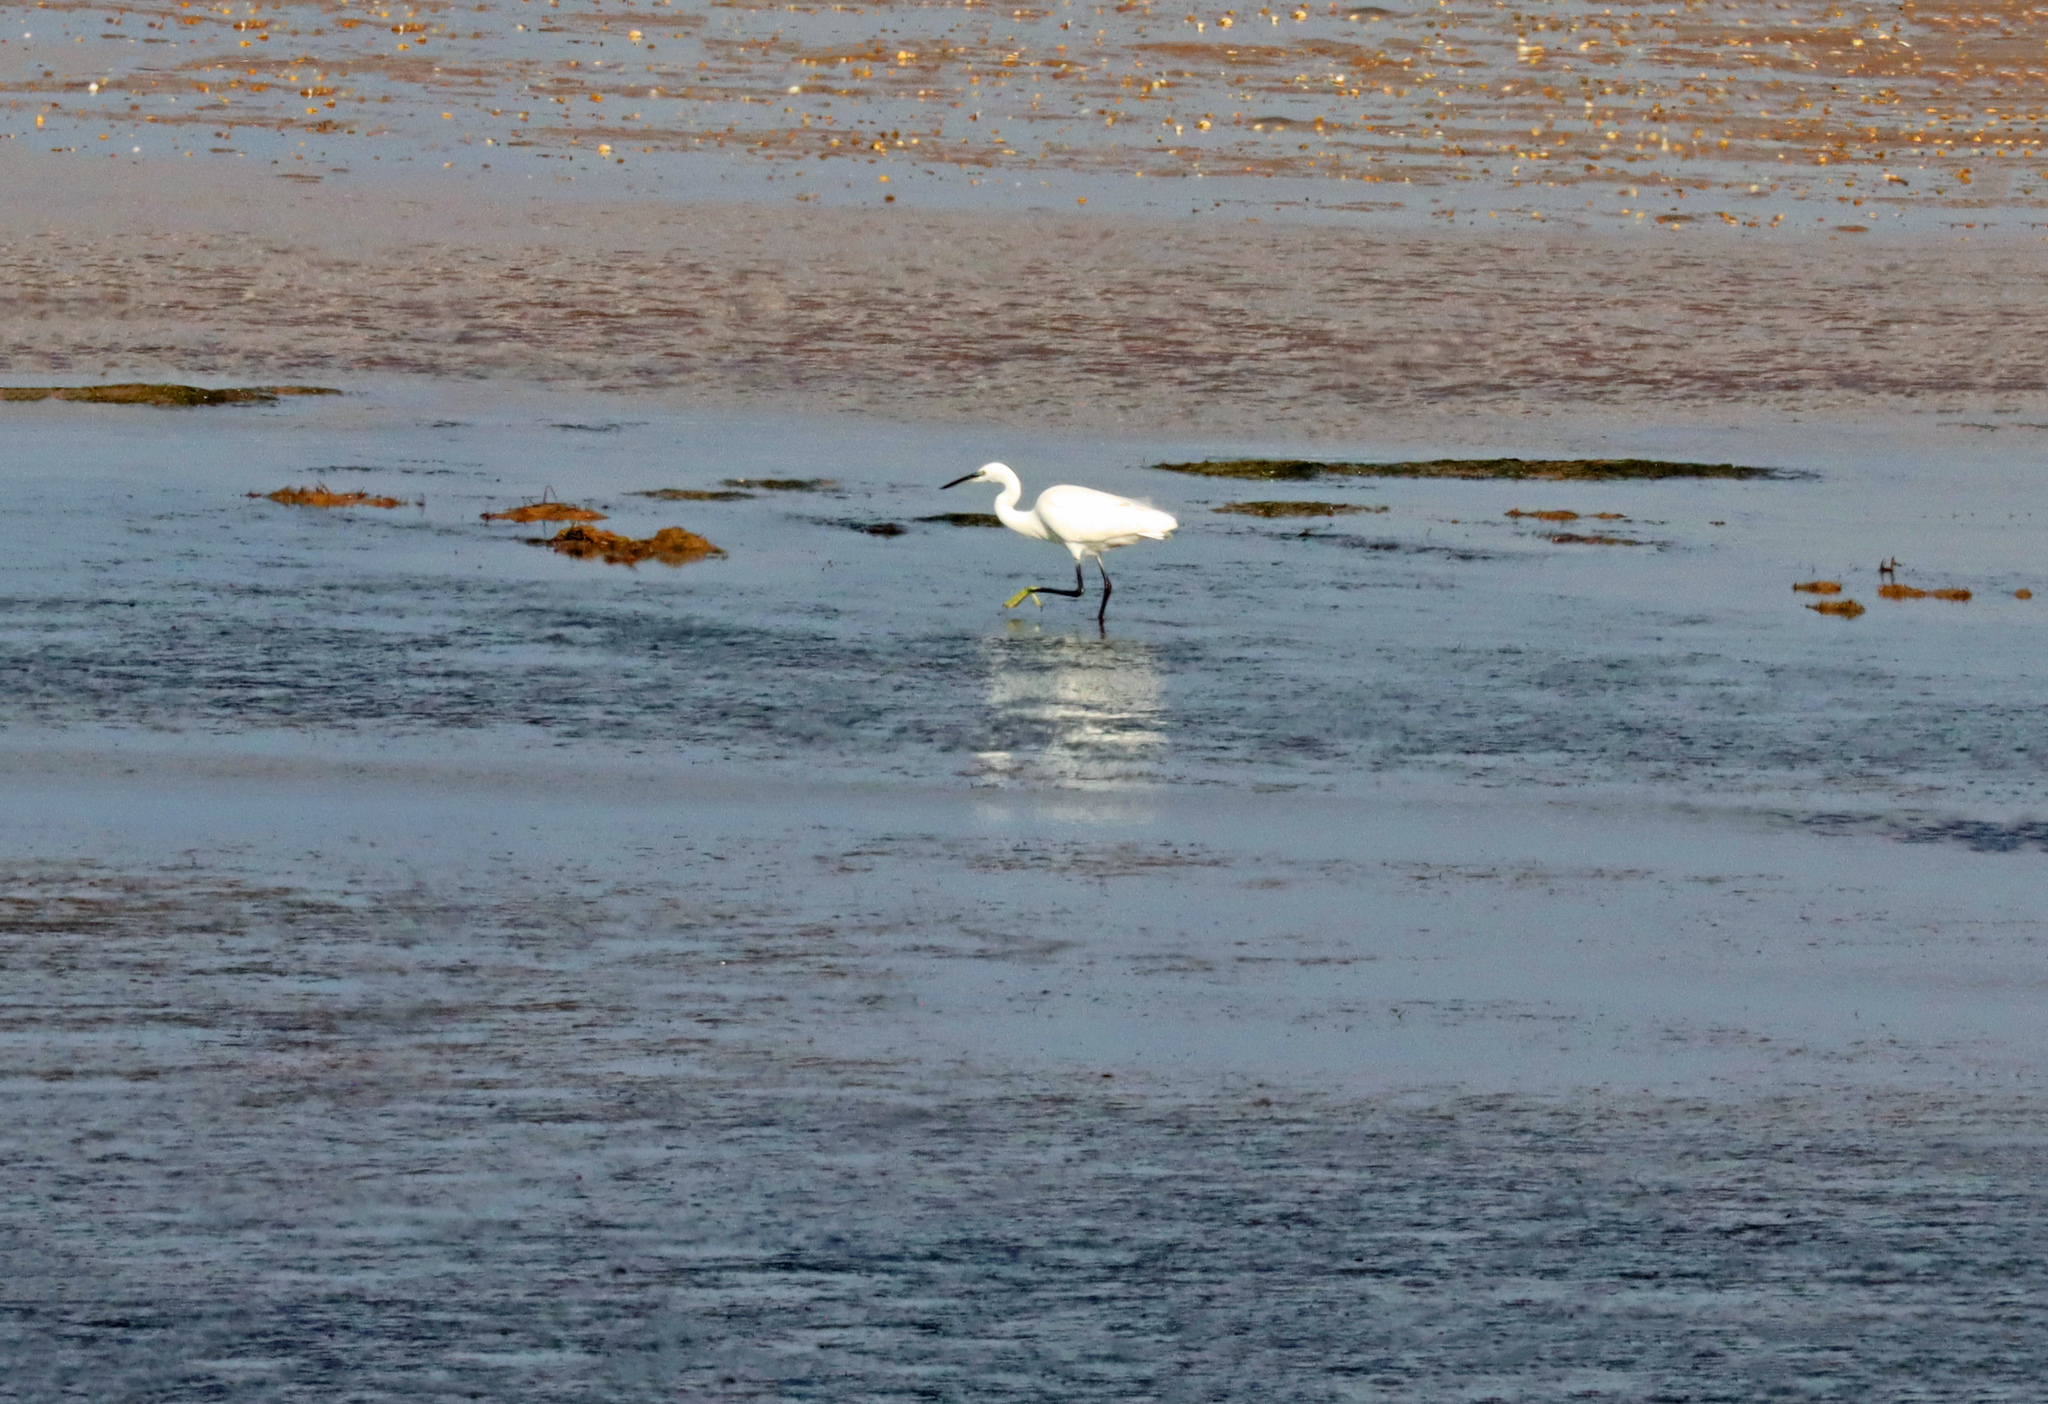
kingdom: Animalia
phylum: Chordata
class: Aves
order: Pelecaniformes
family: Ardeidae
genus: Egretta
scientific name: Egretta garzetta
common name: Little egret
